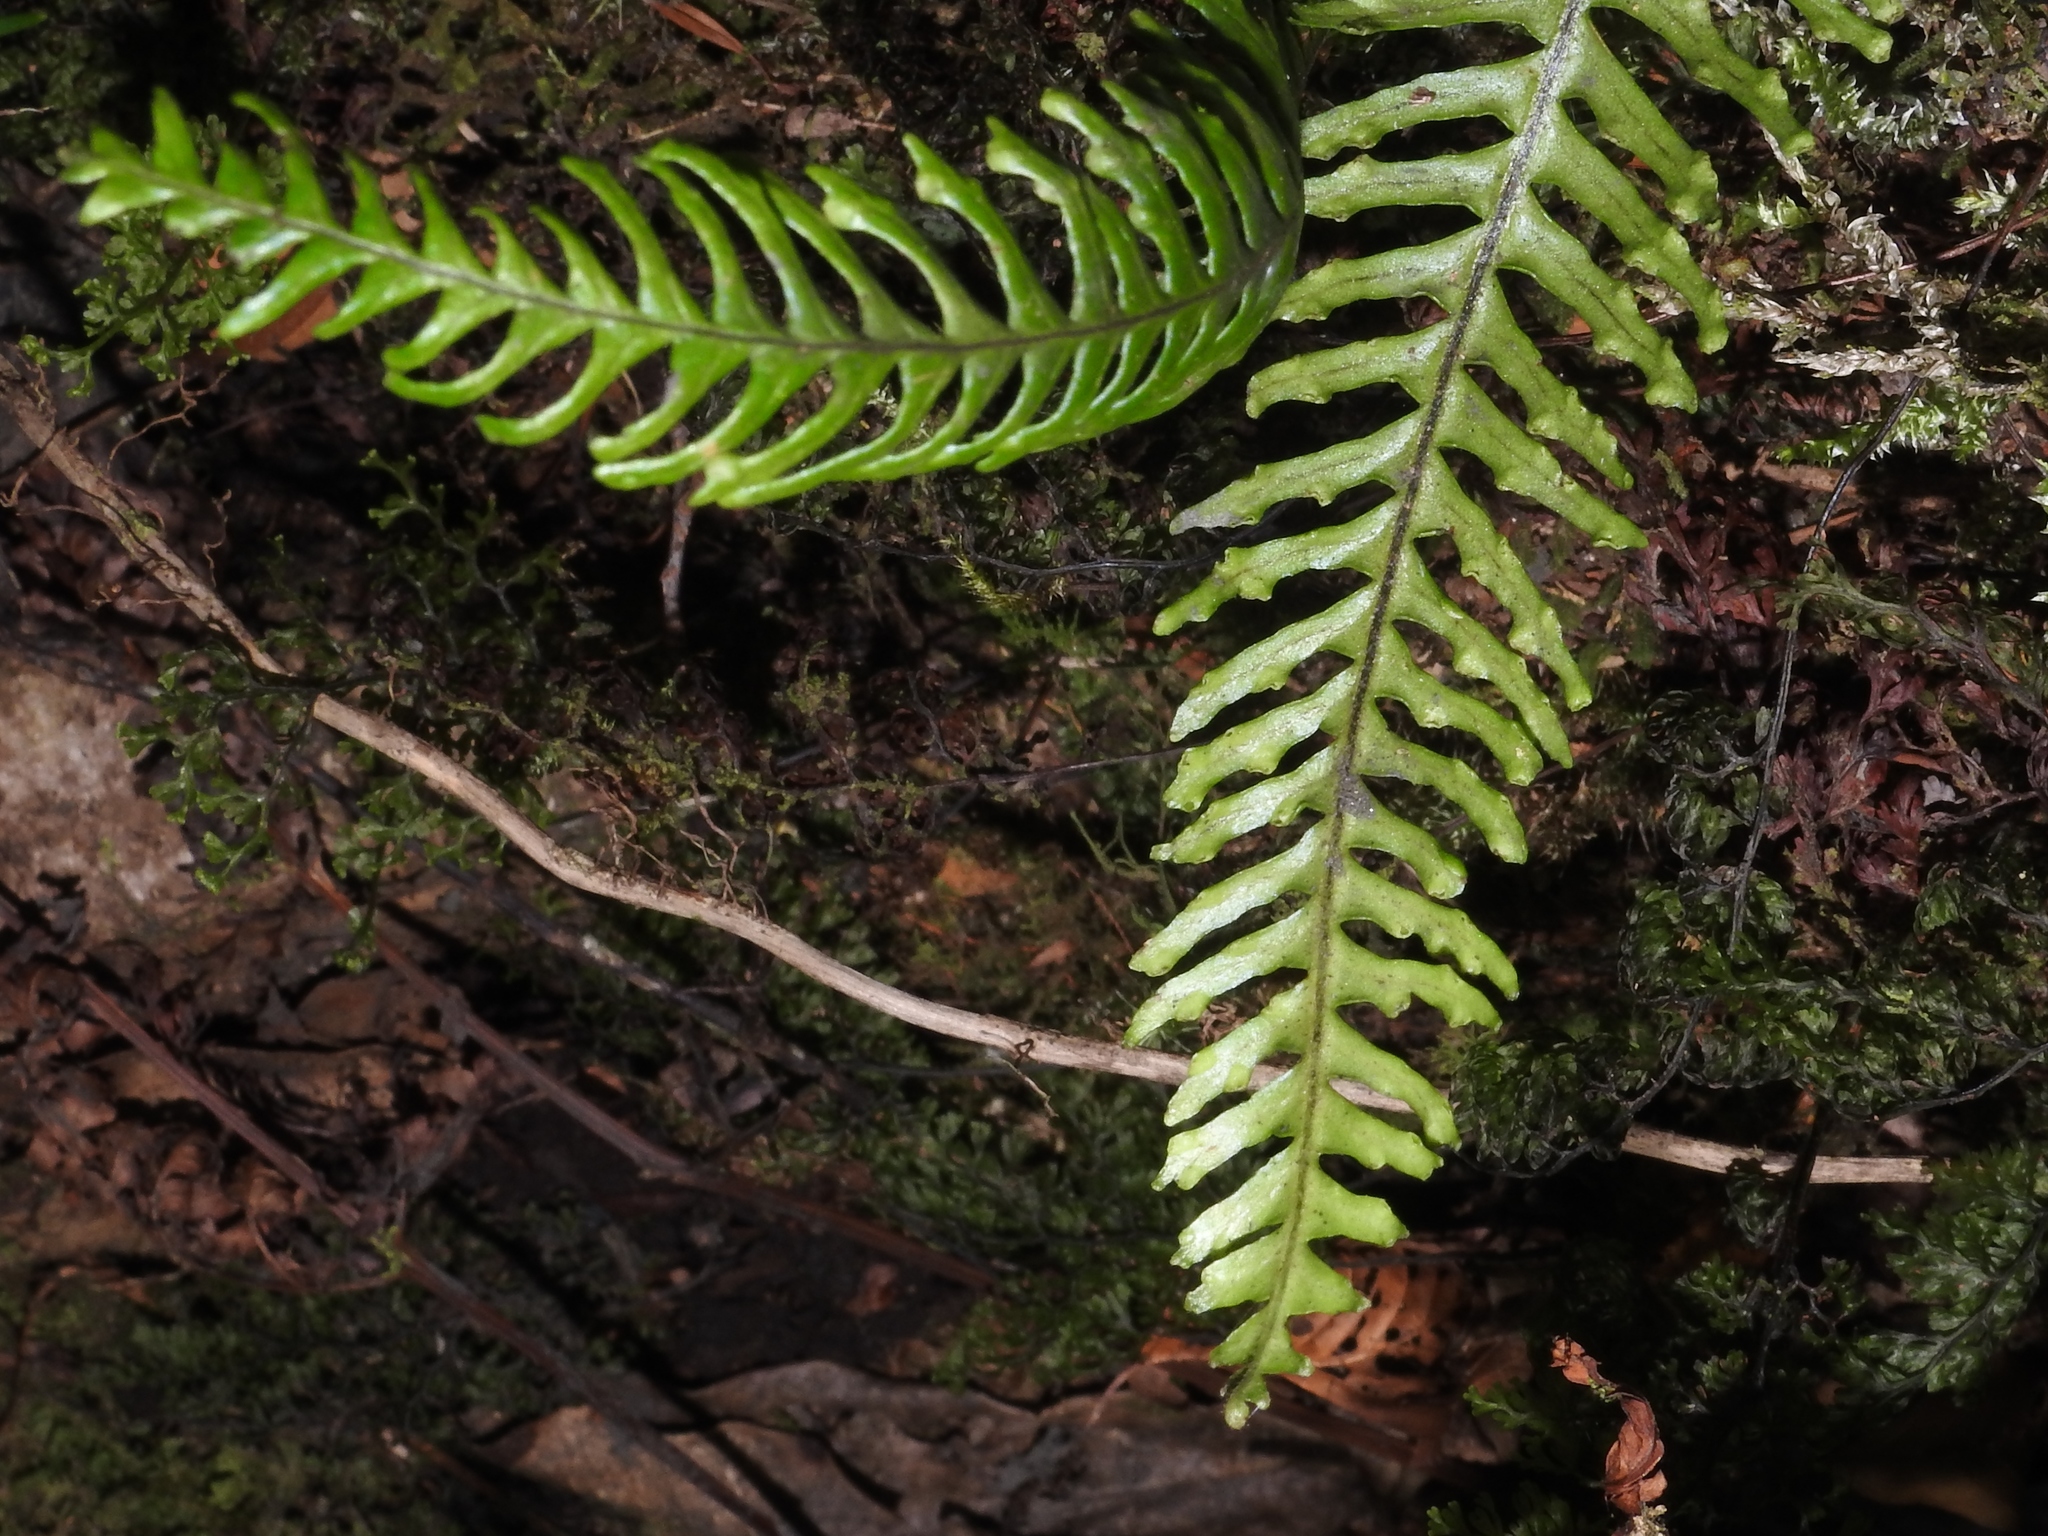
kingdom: Plantae
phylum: Tracheophyta
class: Polypodiopsida
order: Polypodiales
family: Polypodiaceae
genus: Prosaptia
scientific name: Prosaptia formosana
